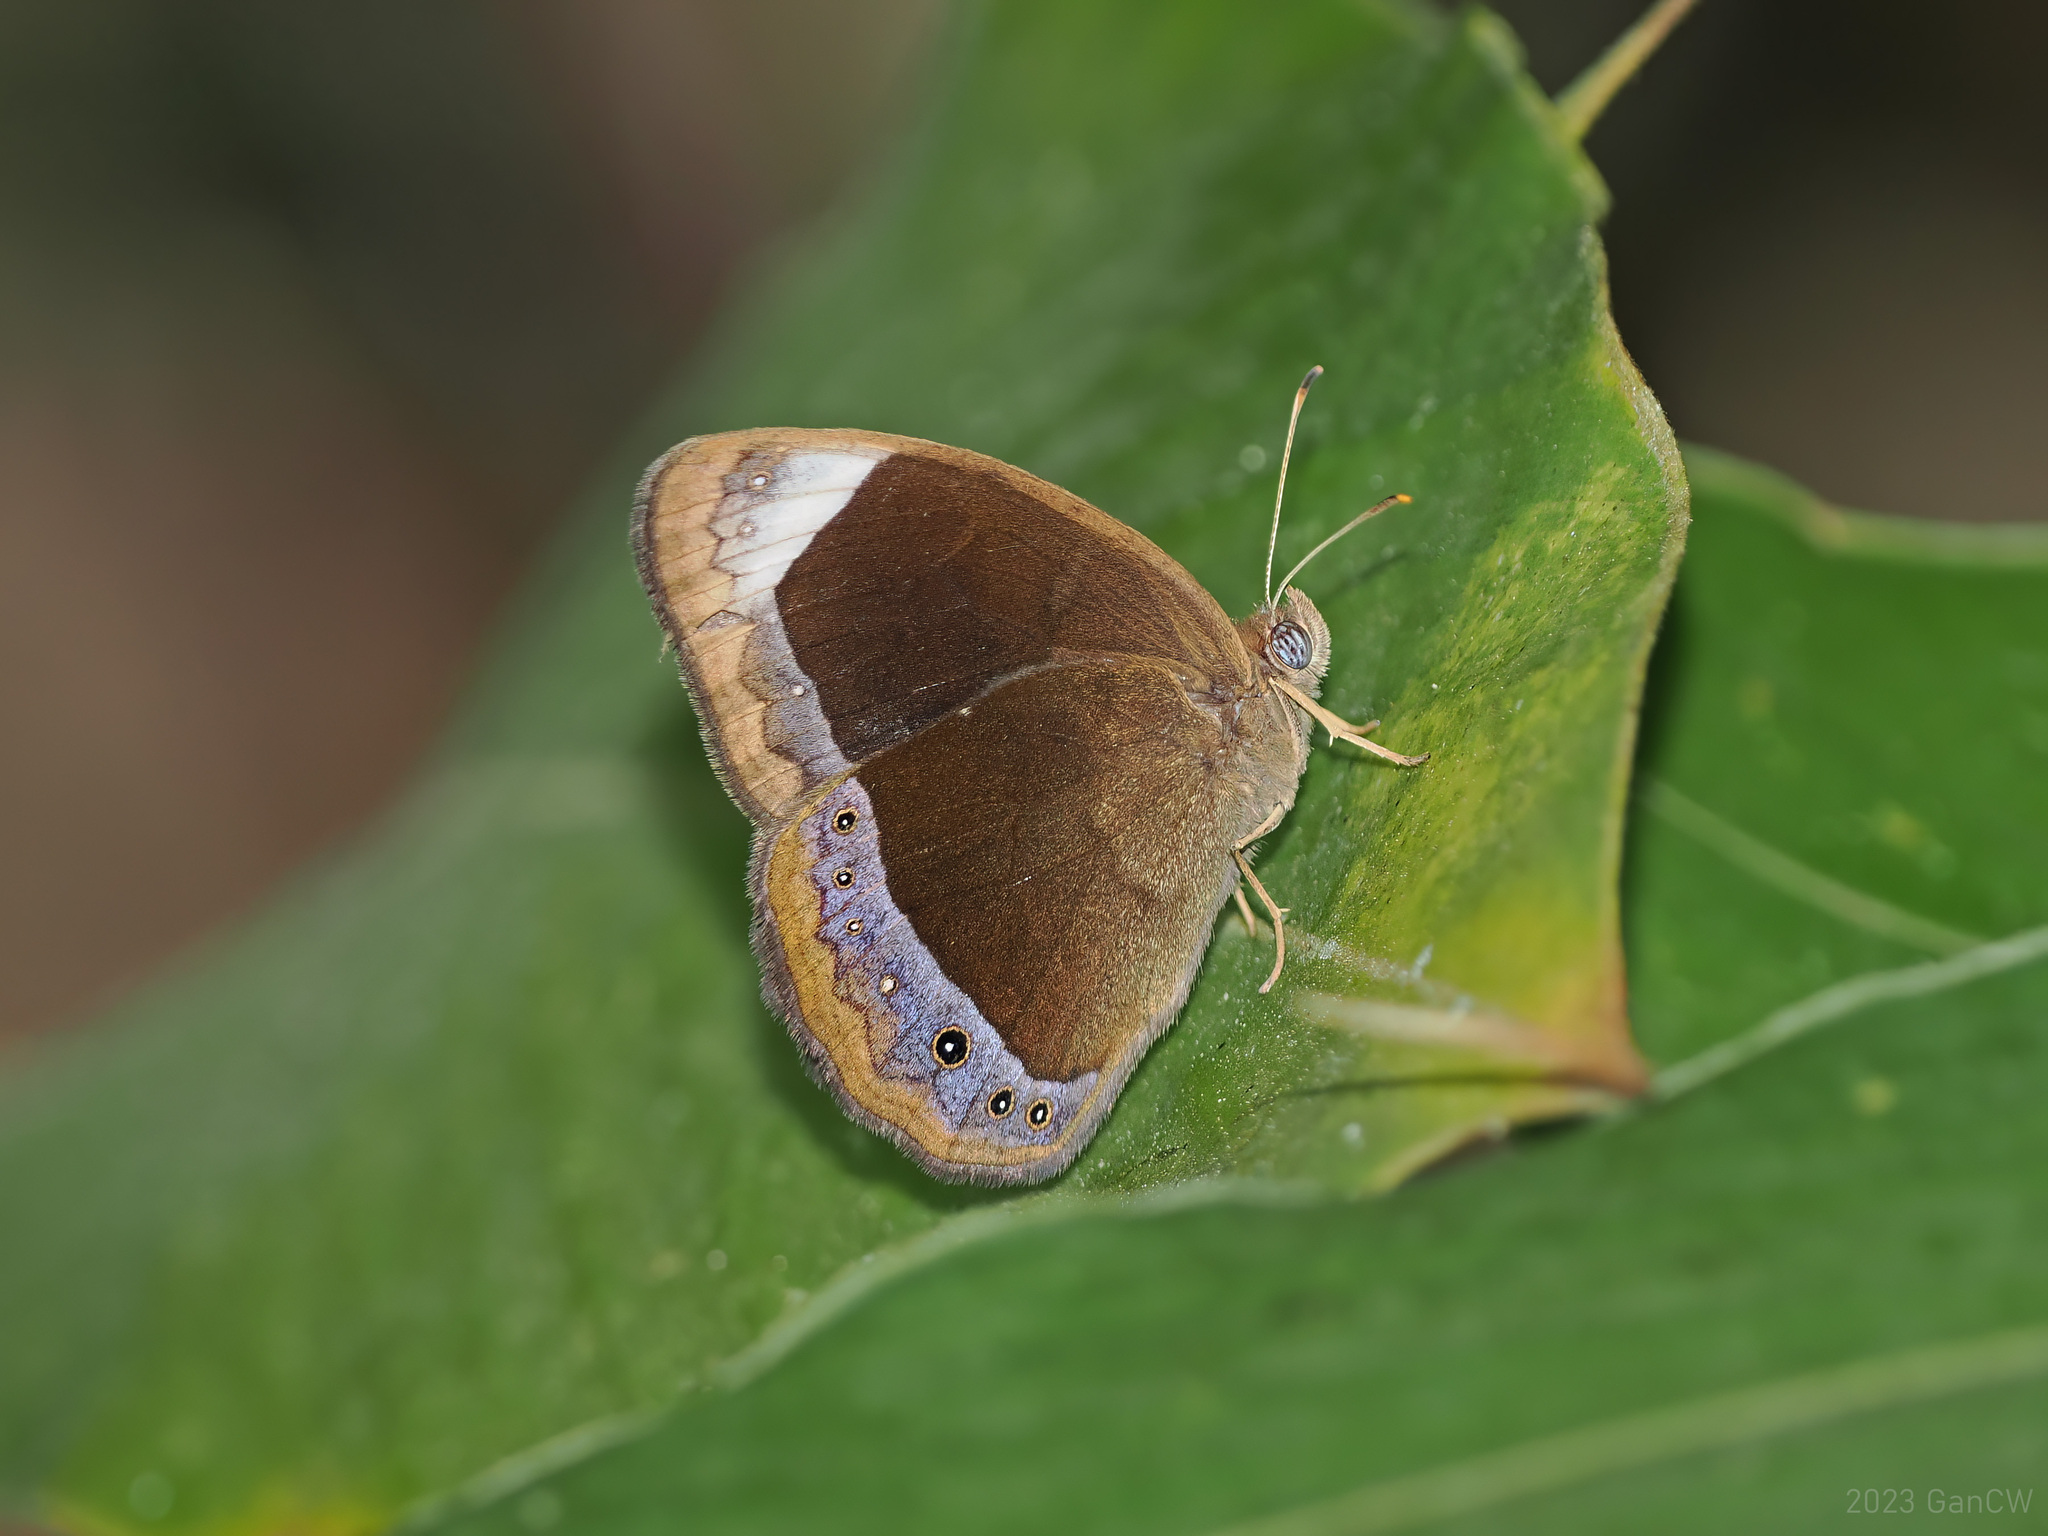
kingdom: Animalia
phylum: Arthropoda
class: Insecta
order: Lepidoptera
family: Nymphalidae
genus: Mycalesis
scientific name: Mycalesis anaxias
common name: White-bar bushbrown
